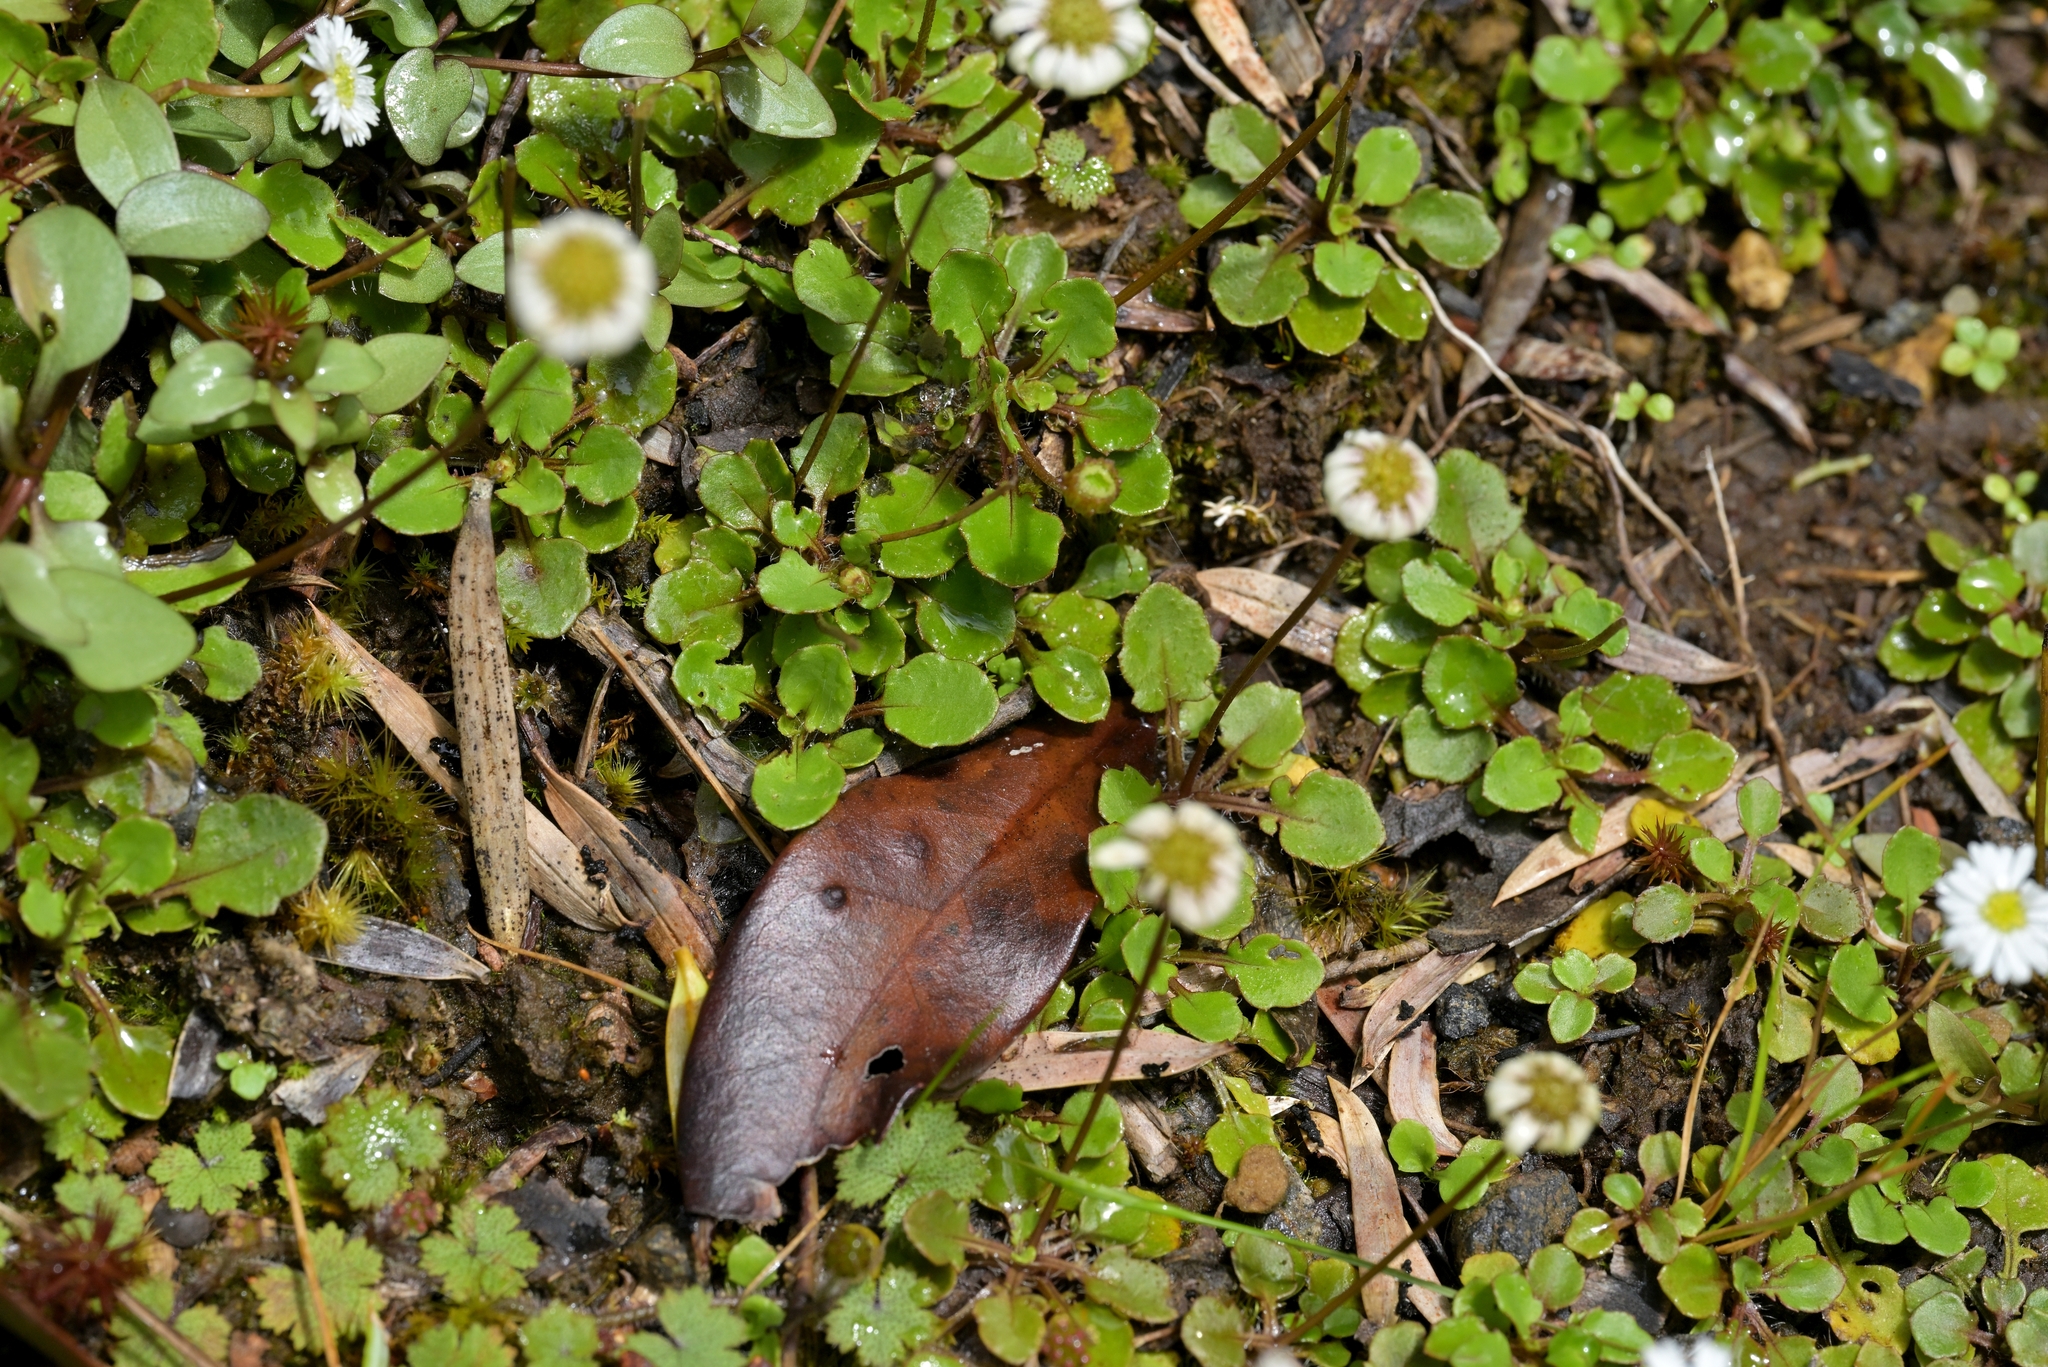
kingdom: Plantae
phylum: Tracheophyta
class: Magnoliopsida
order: Asterales
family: Asteraceae
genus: Lagenophora
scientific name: Lagenophora pumila
